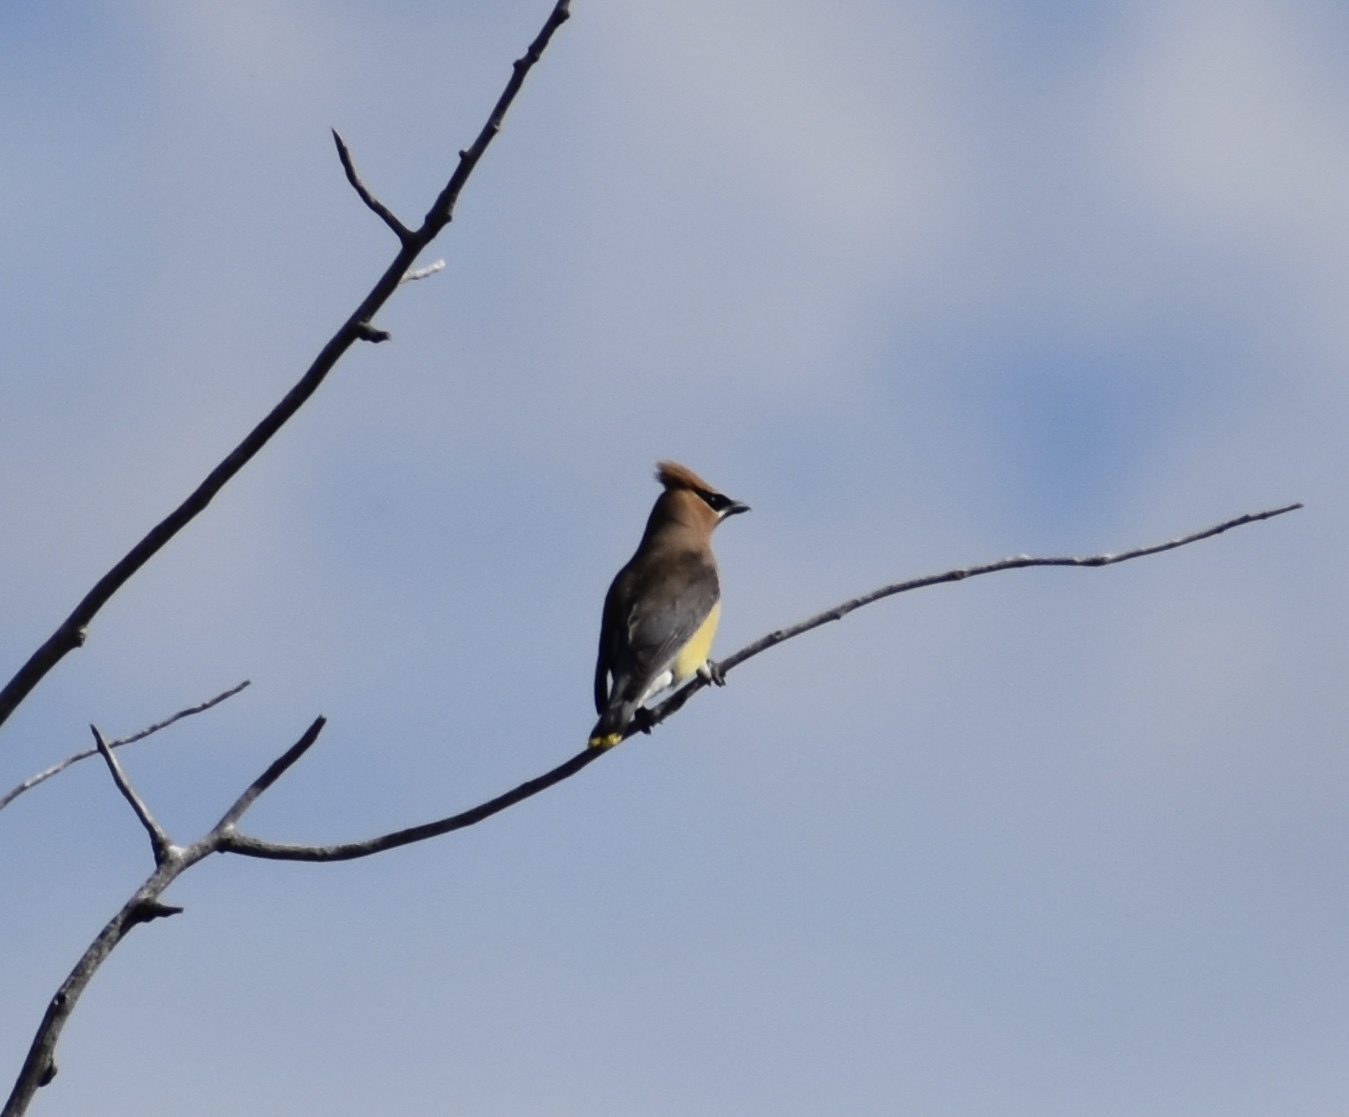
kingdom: Animalia
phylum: Chordata
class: Aves
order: Passeriformes
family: Bombycillidae
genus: Bombycilla
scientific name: Bombycilla cedrorum
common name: Cedar waxwing
